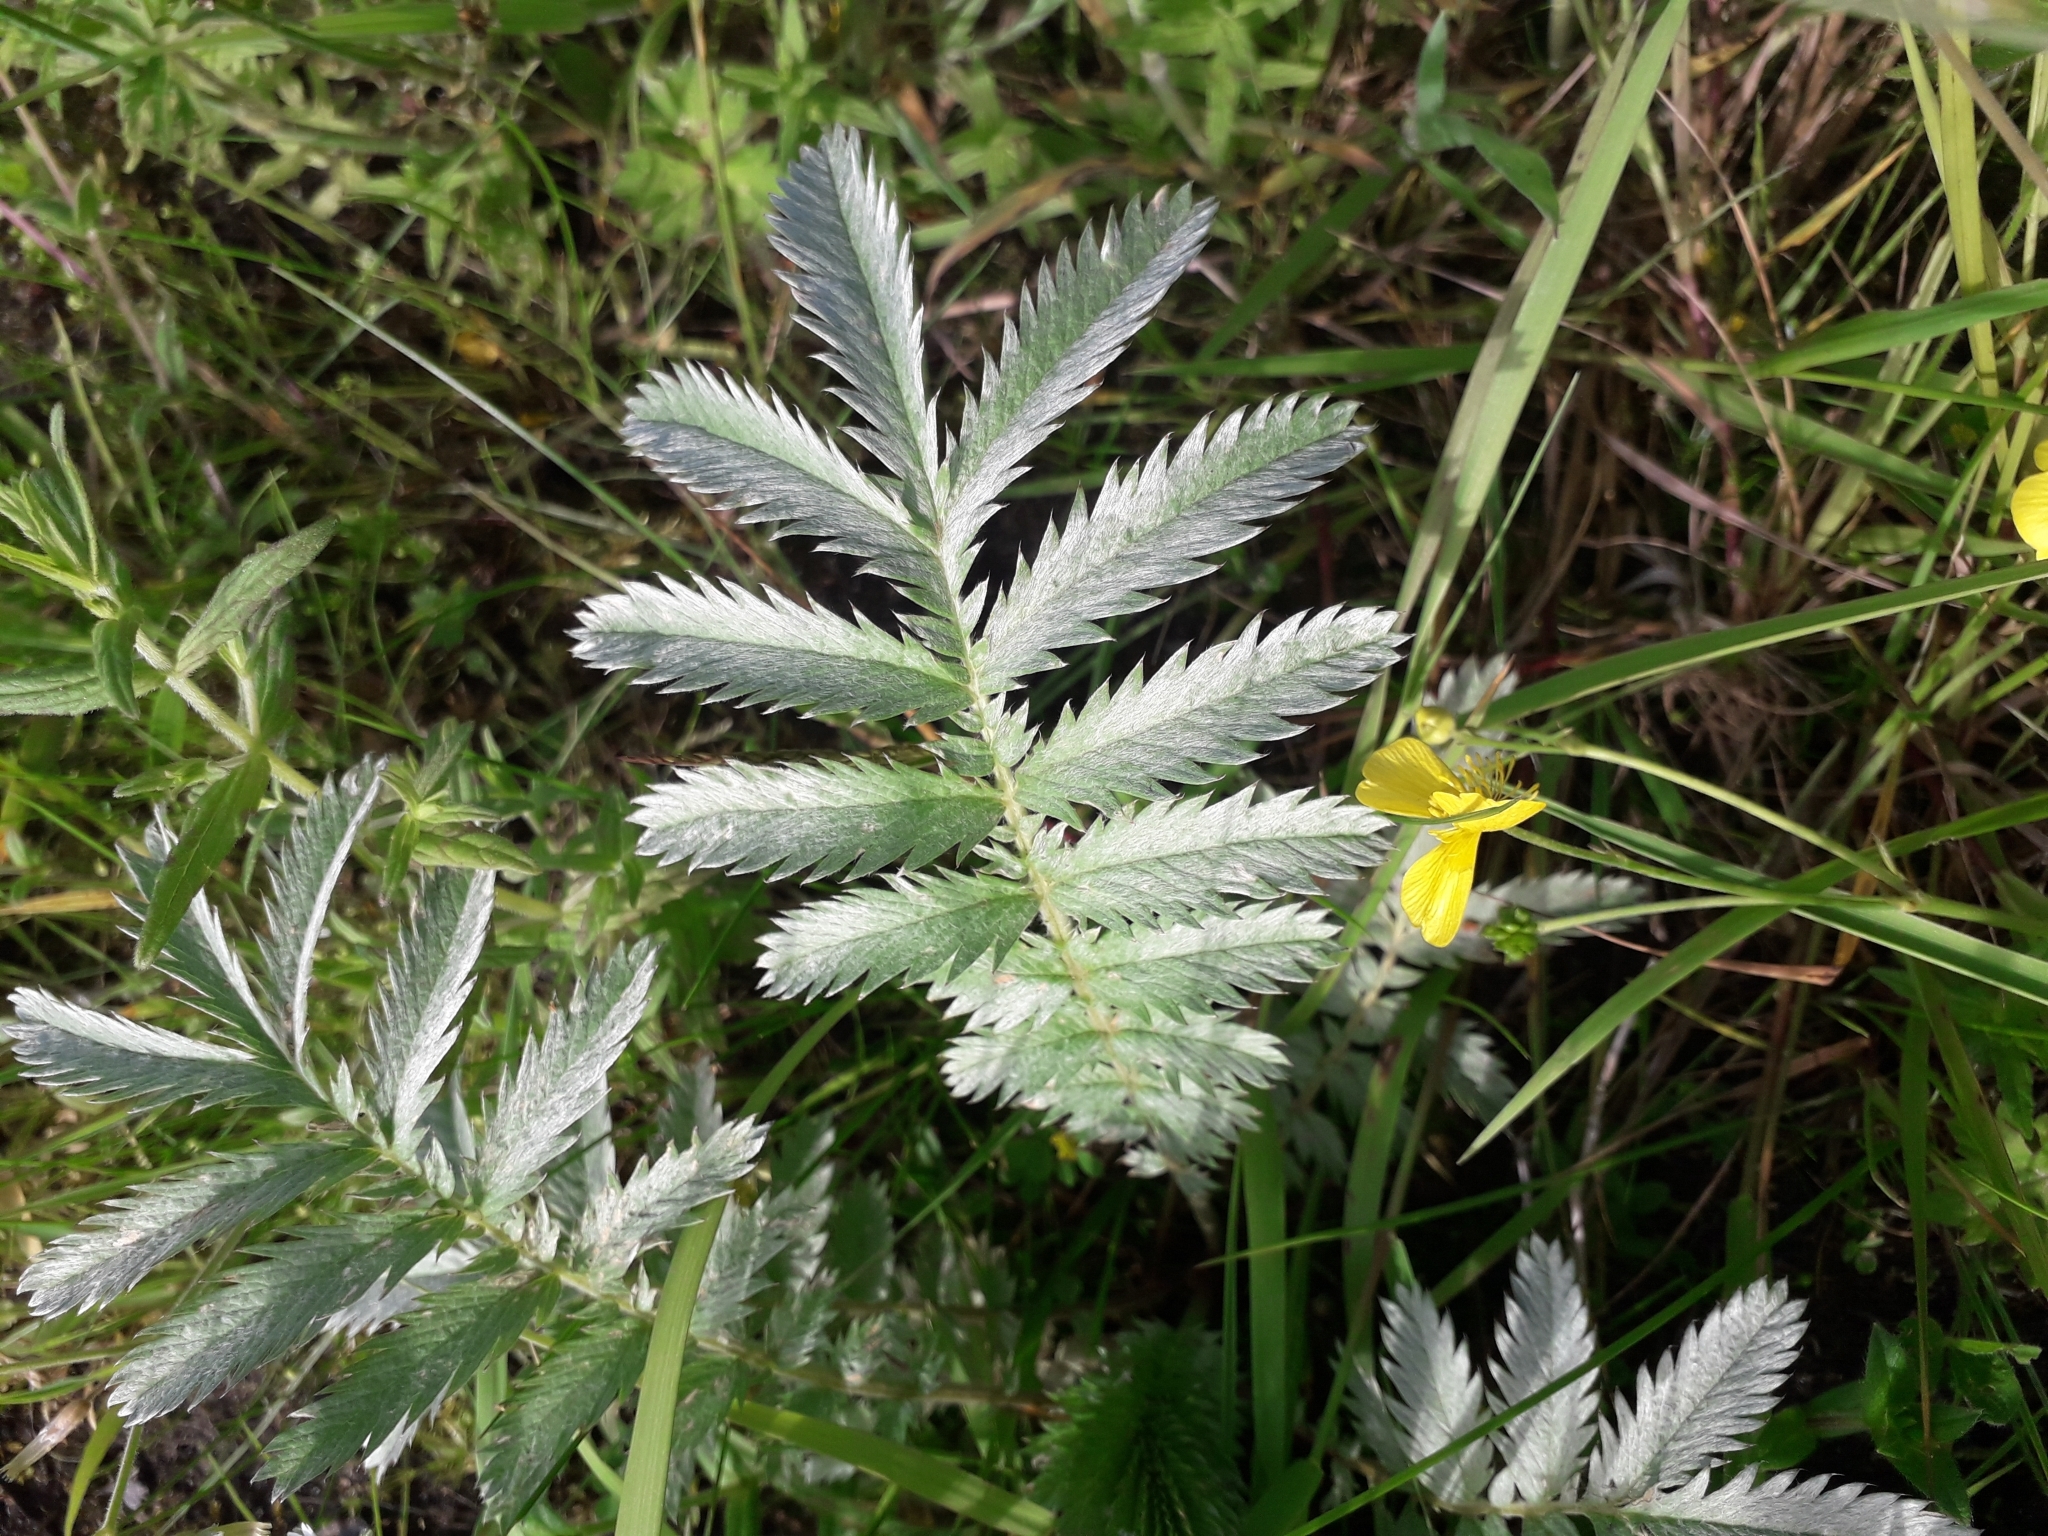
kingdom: Plantae
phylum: Tracheophyta
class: Magnoliopsida
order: Rosales
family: Rosaceae
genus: Argentina
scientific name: Argentina anserina
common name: Common silverweed
